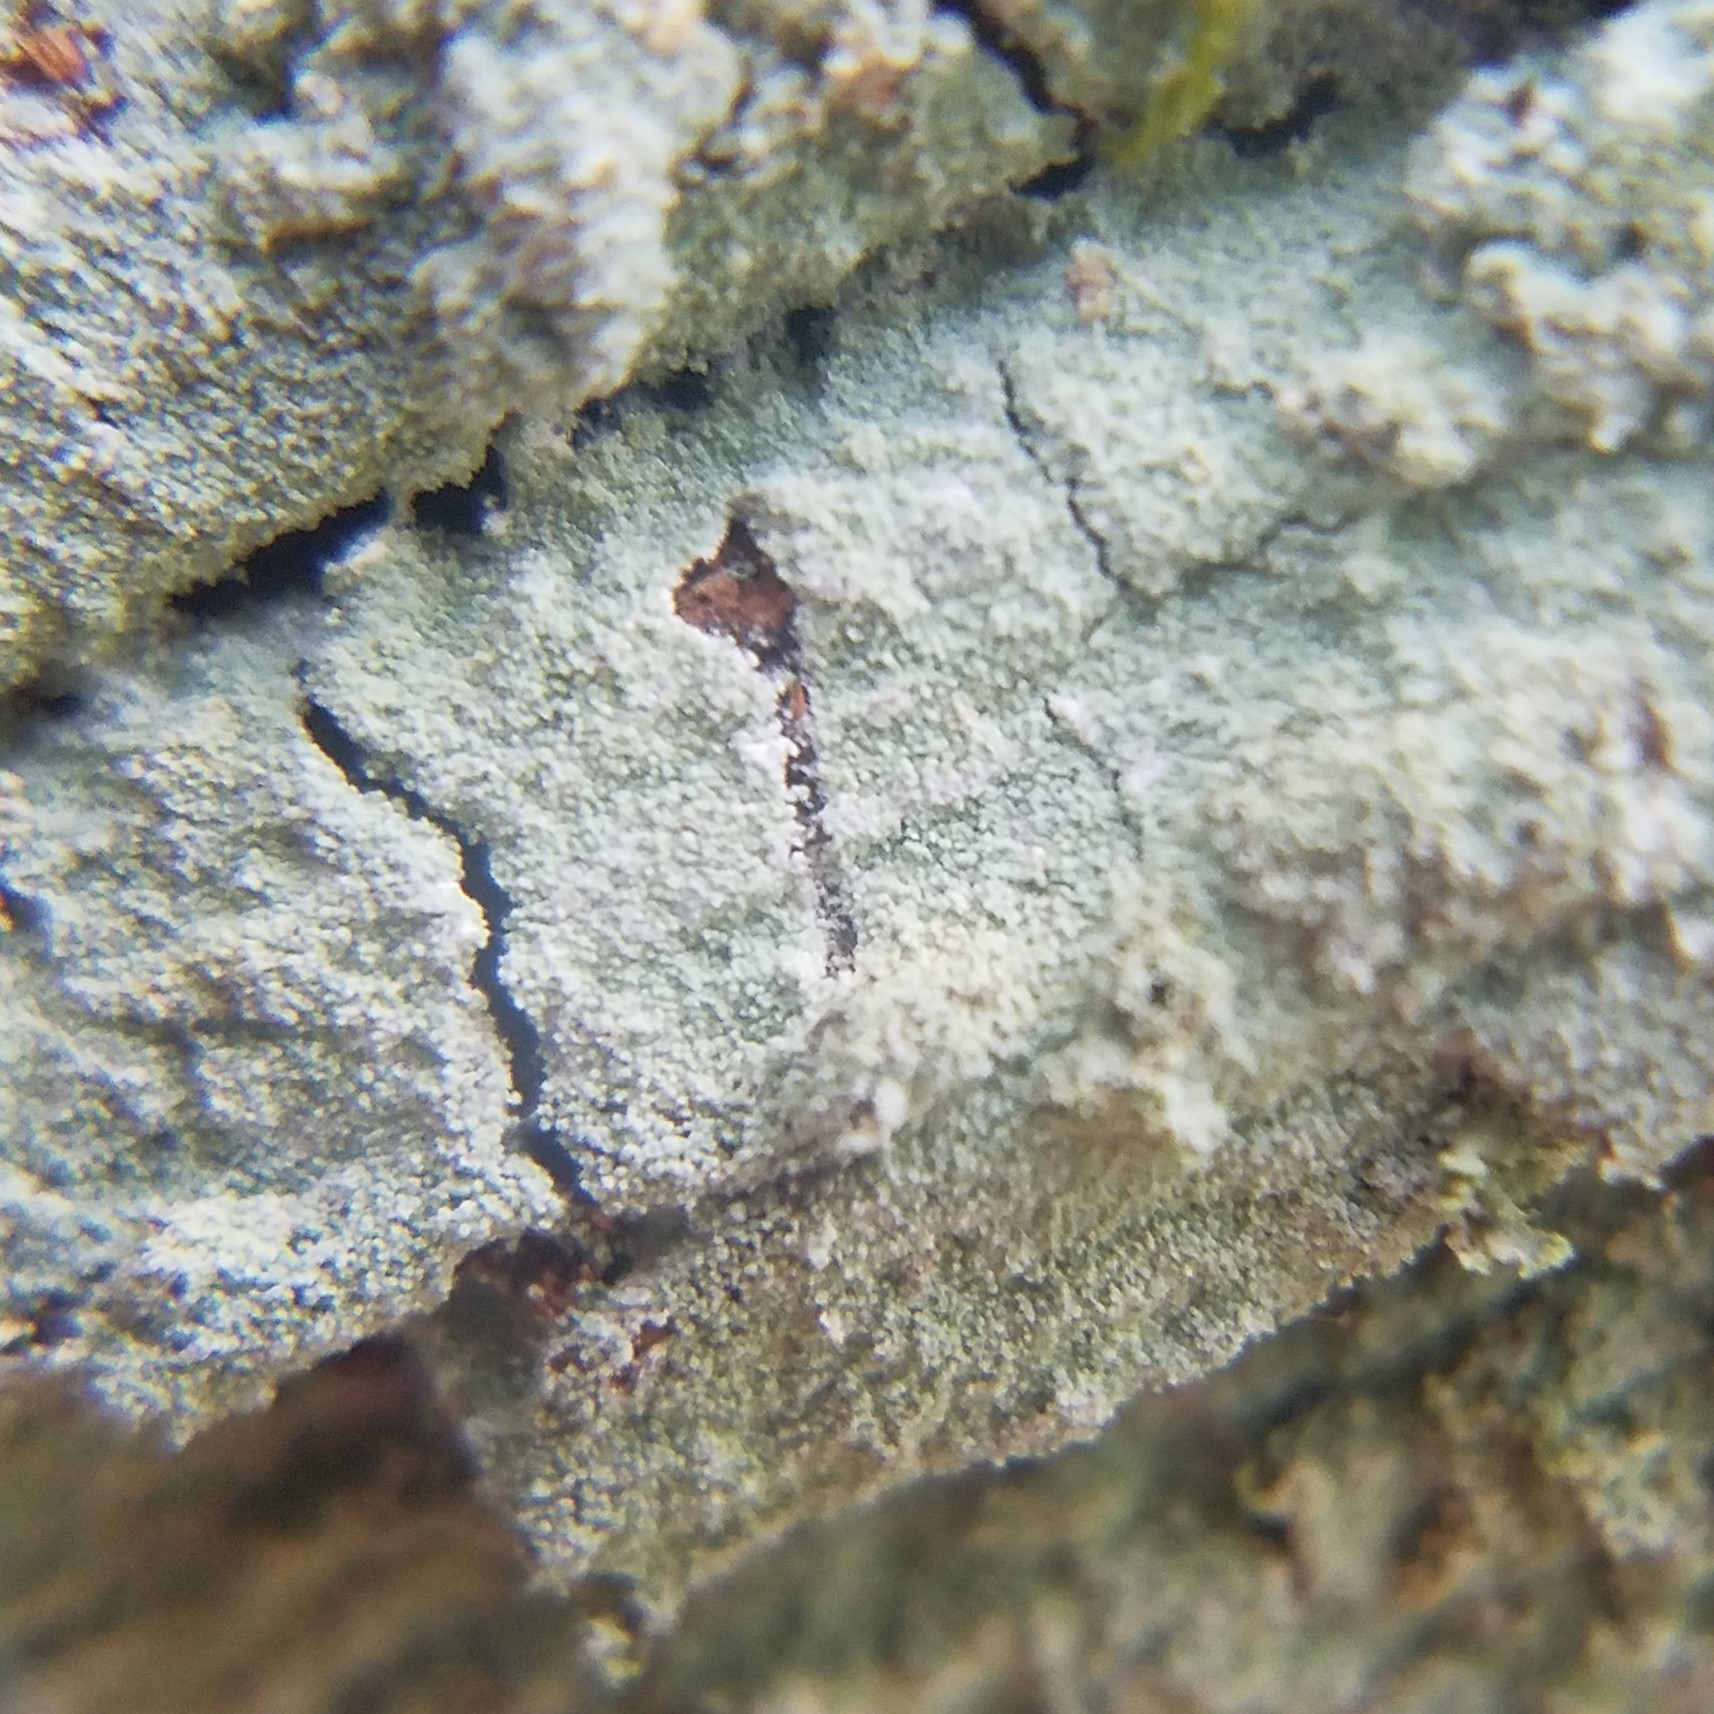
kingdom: Fungi
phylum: Ascomycota
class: Lecanoromycetes
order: Lecanorales
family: Stereocaulaceae
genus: Lepraria
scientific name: Lepraria harrisiana
